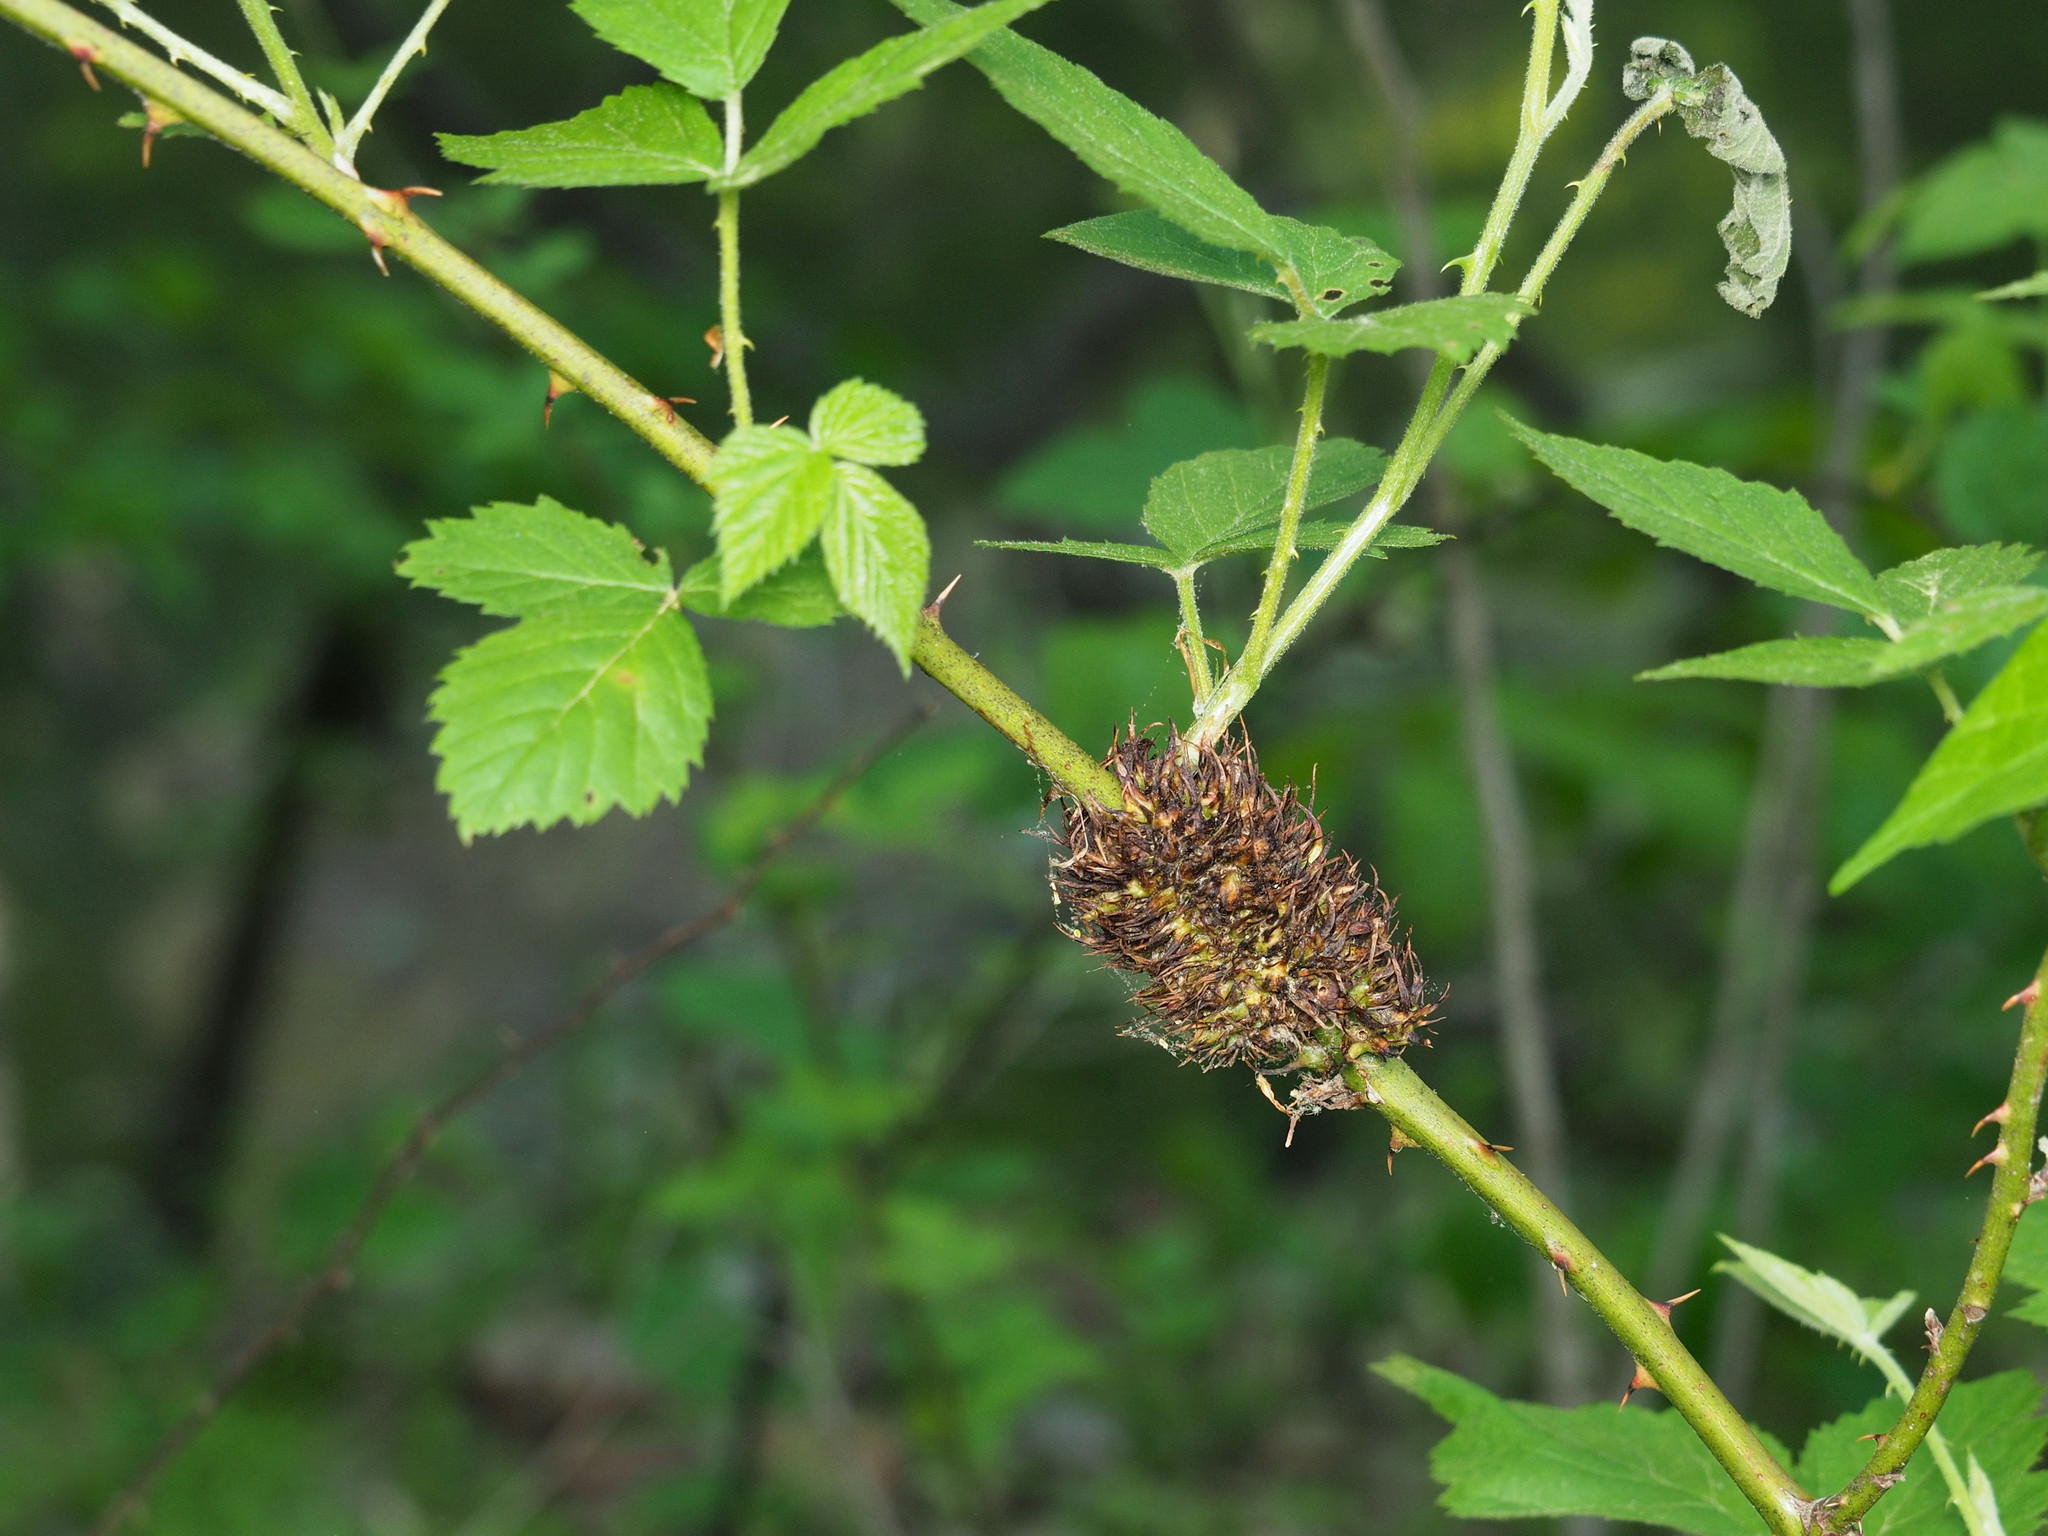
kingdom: Animalia
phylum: Arthropoda
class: Insecta
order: Hymenoptera
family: Cynipidae
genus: Diastrophus
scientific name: Diastrophus
